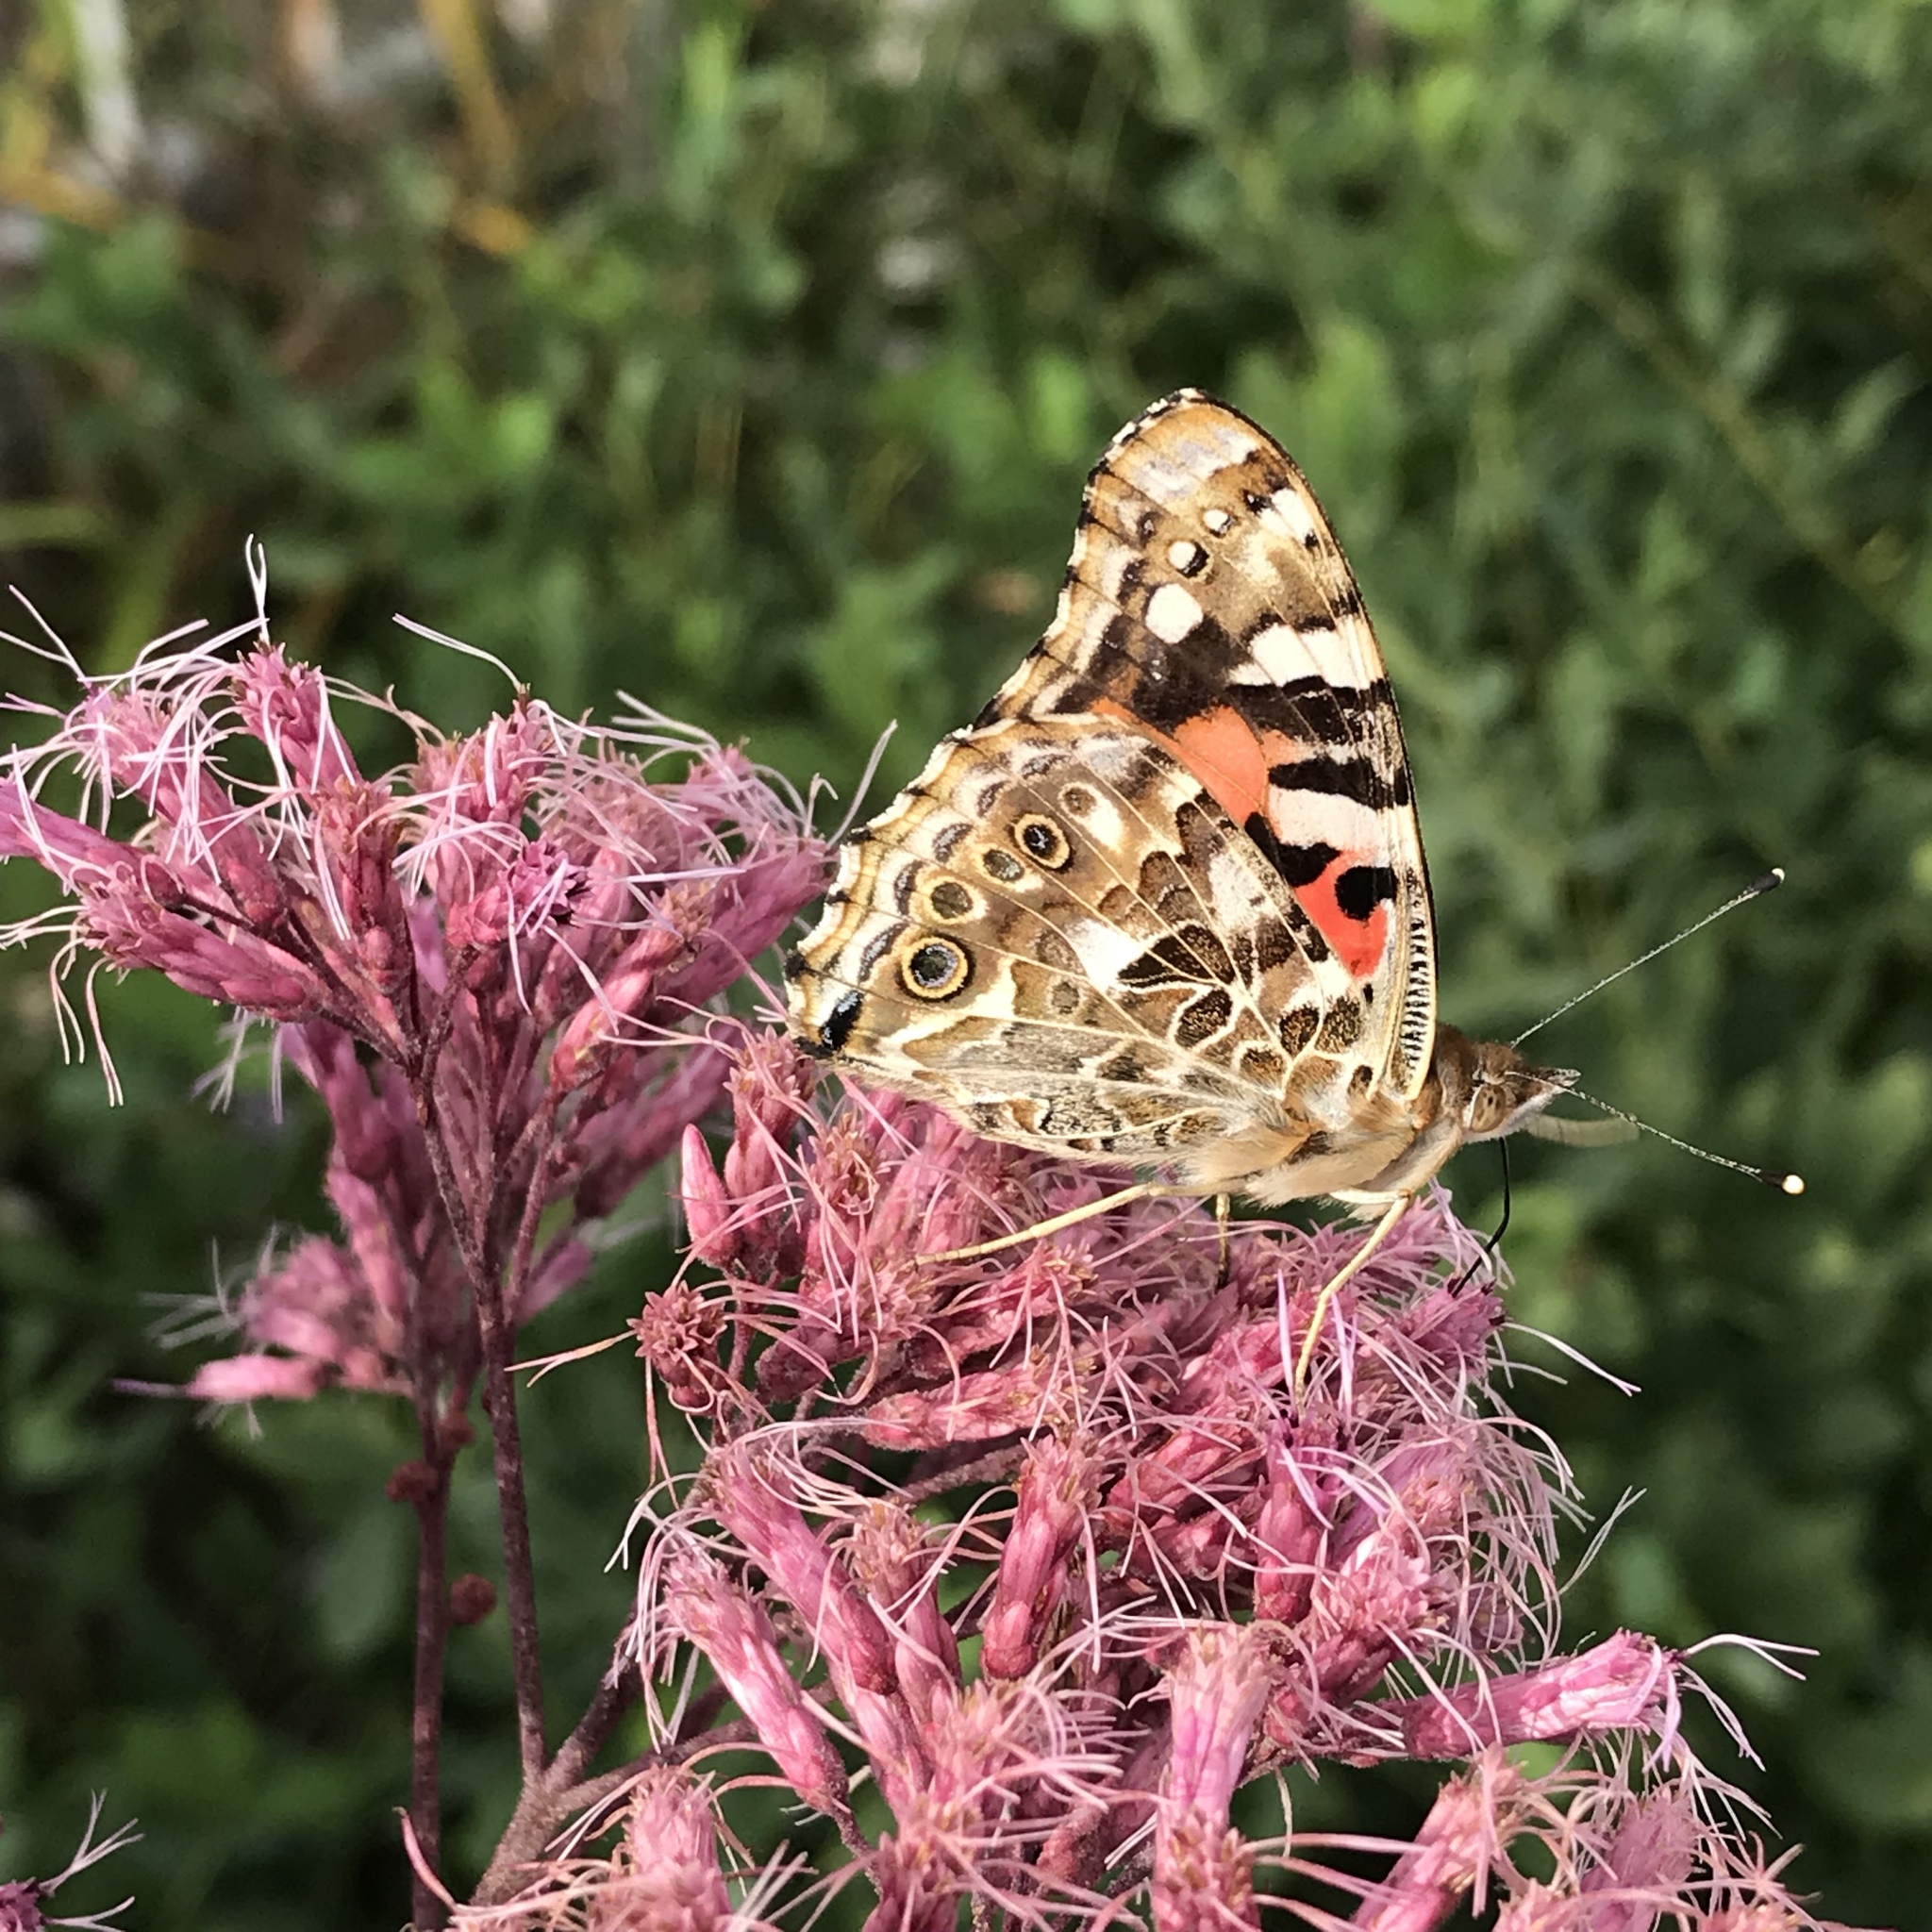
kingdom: Animalia
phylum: Arthropoda
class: Insecta
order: Lepidoptera
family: Nymphalidae
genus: Vanessa
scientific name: Vanessa cardui
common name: Painted lady
